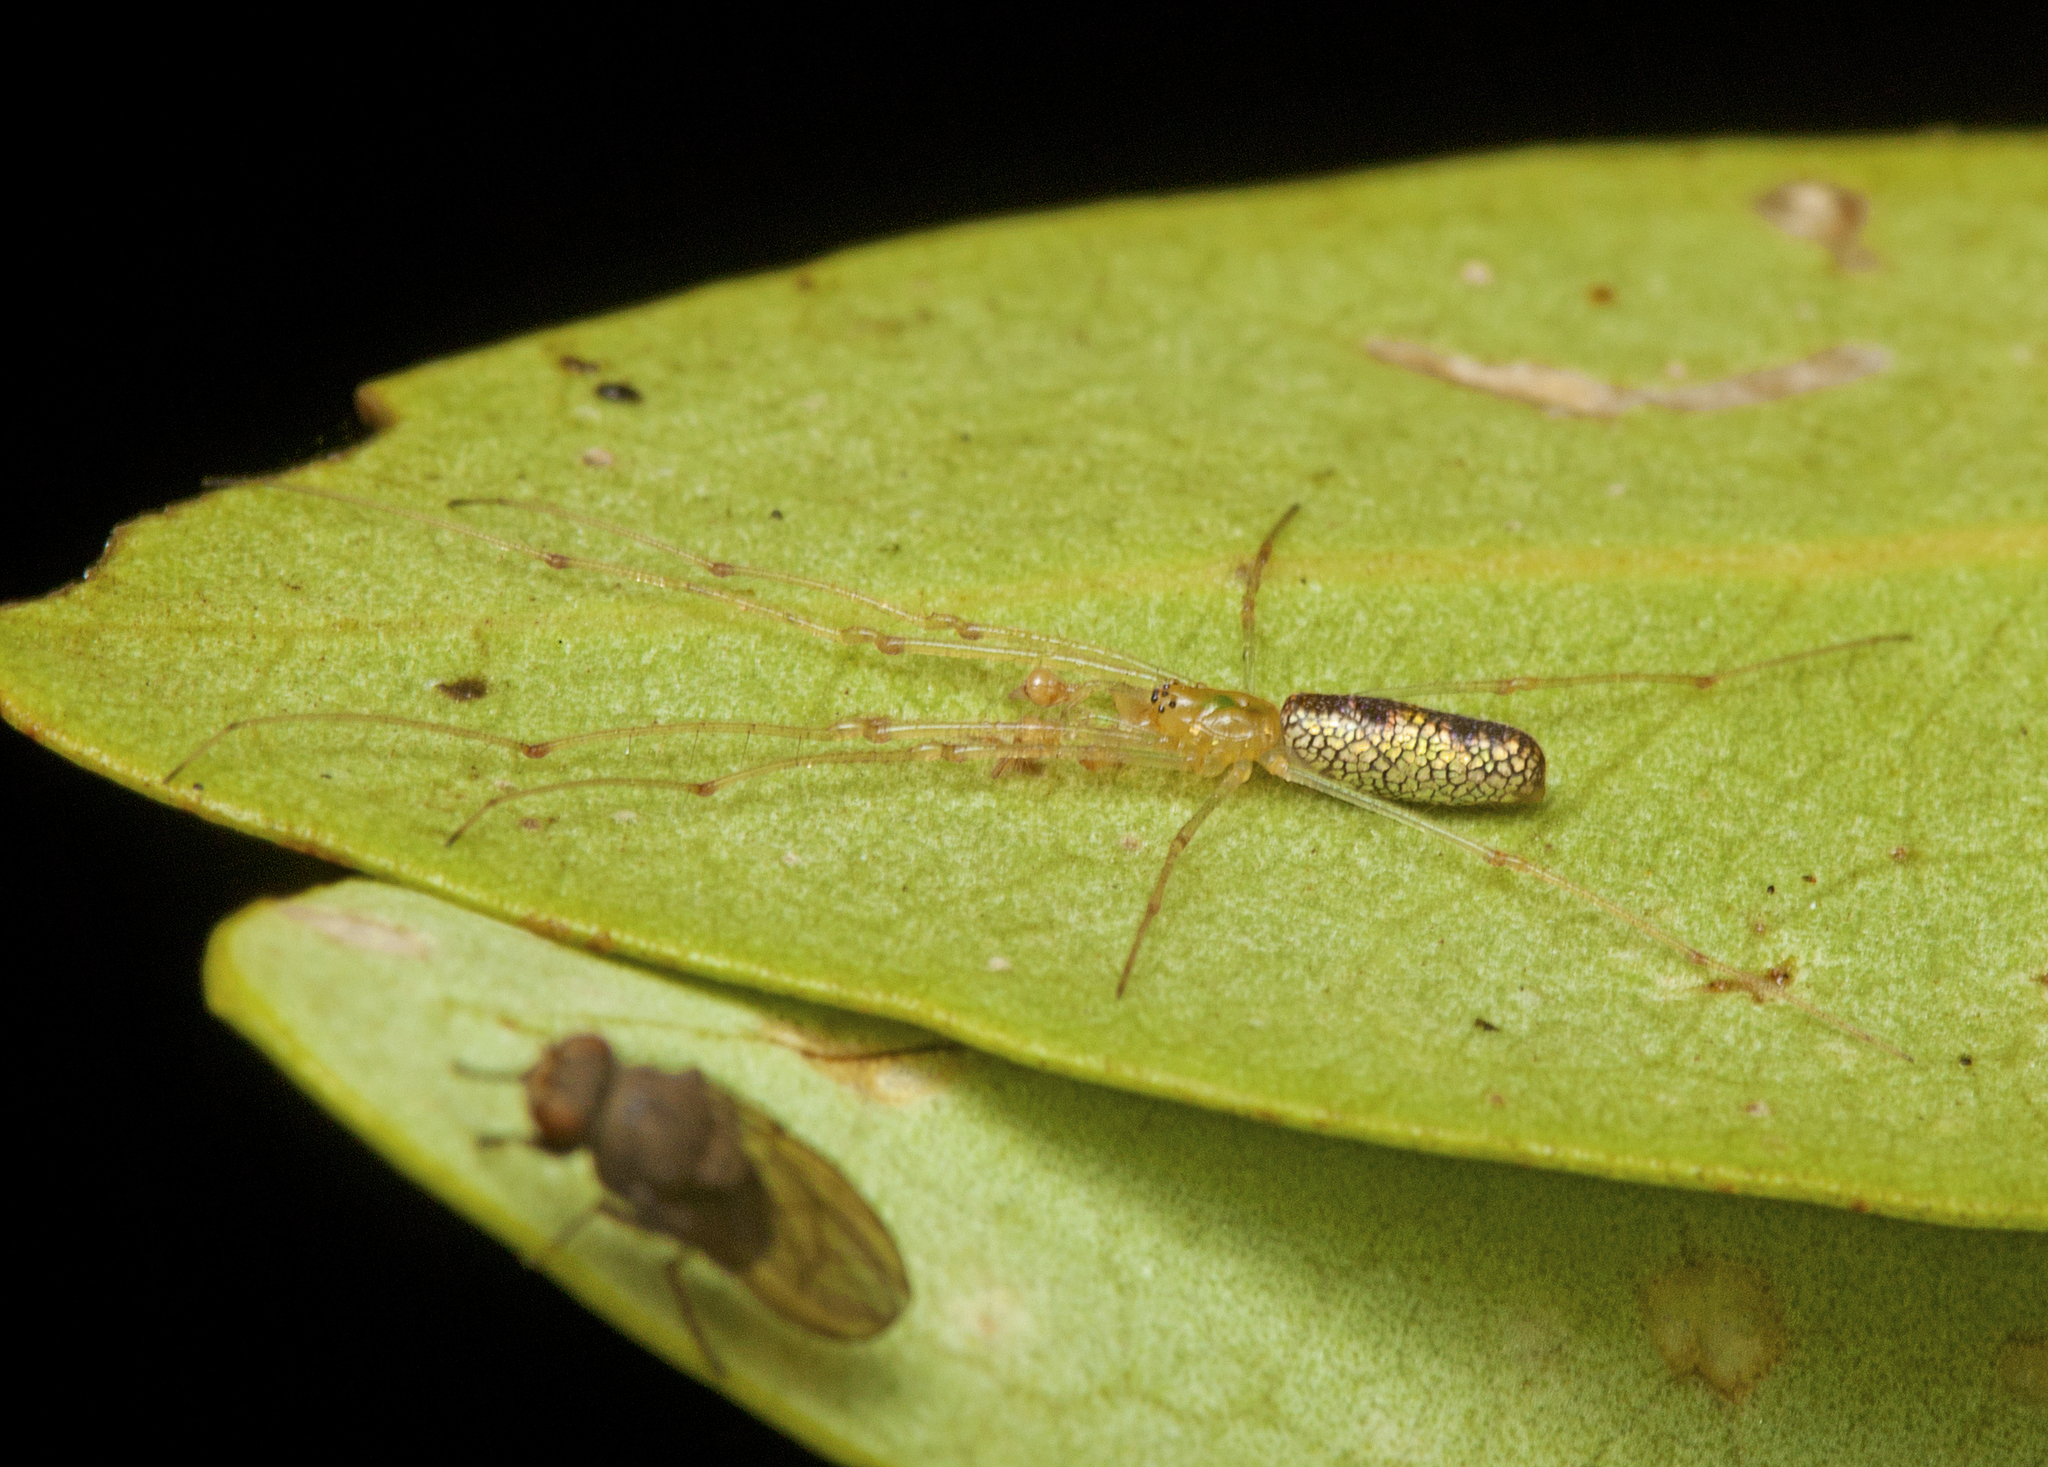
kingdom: Animalia
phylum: Arthropoda
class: Arachnida
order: Araneae
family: Tetragnathidae
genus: Tetragnatha
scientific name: Tetragnatha rubriventris
